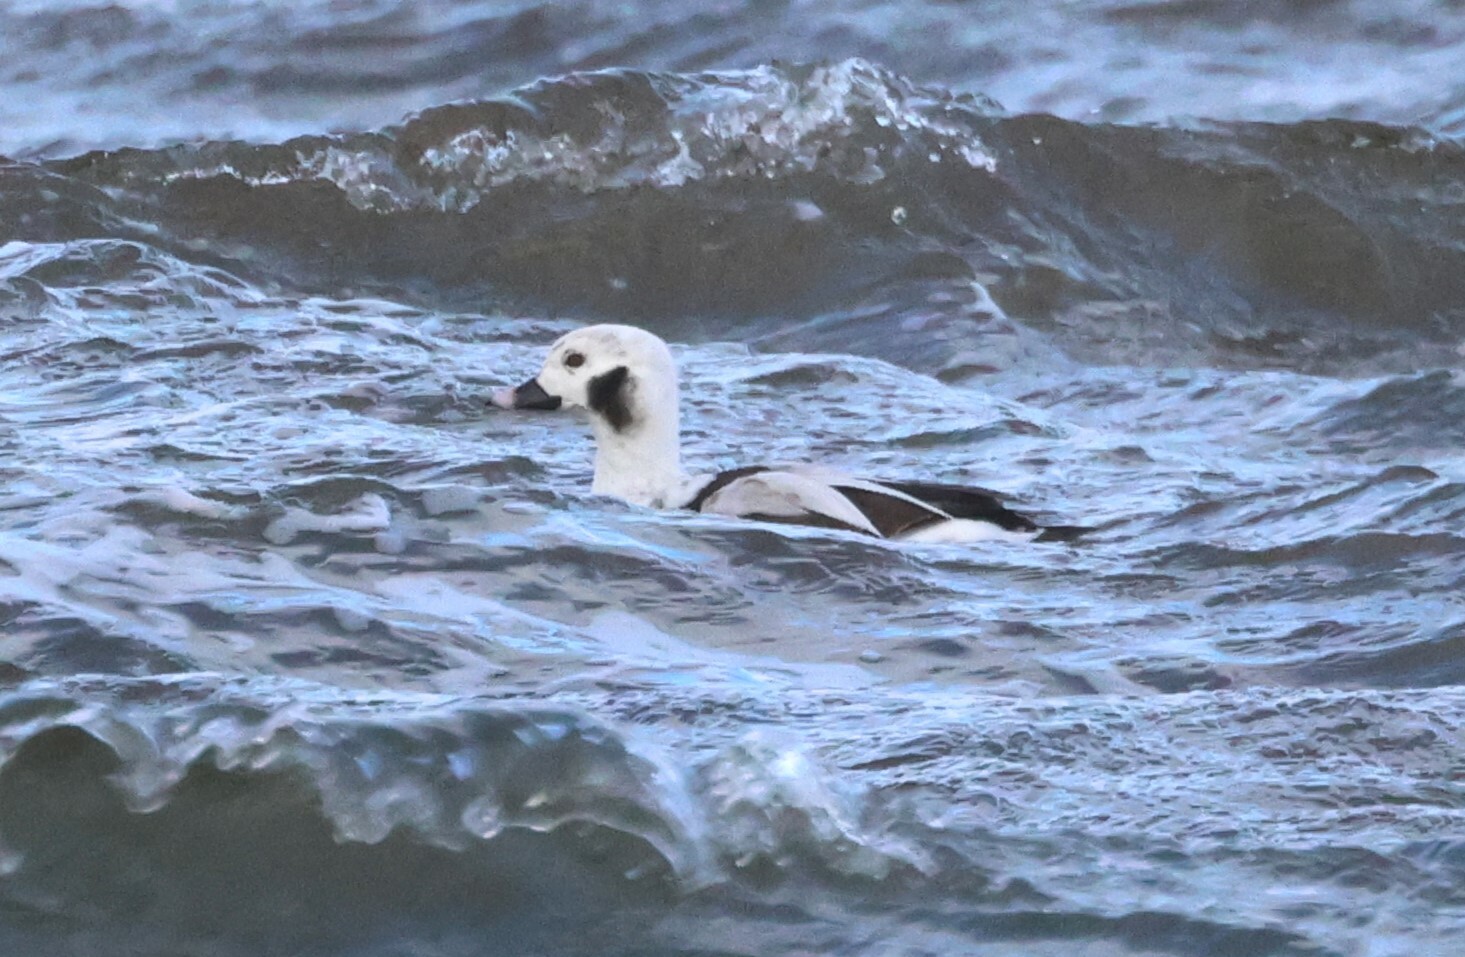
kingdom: Animalia
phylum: Chordata
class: Aves
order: Anseriformes
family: Anatidae
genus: Clangula
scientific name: Clangula hyemalis
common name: Long-tailed duck
